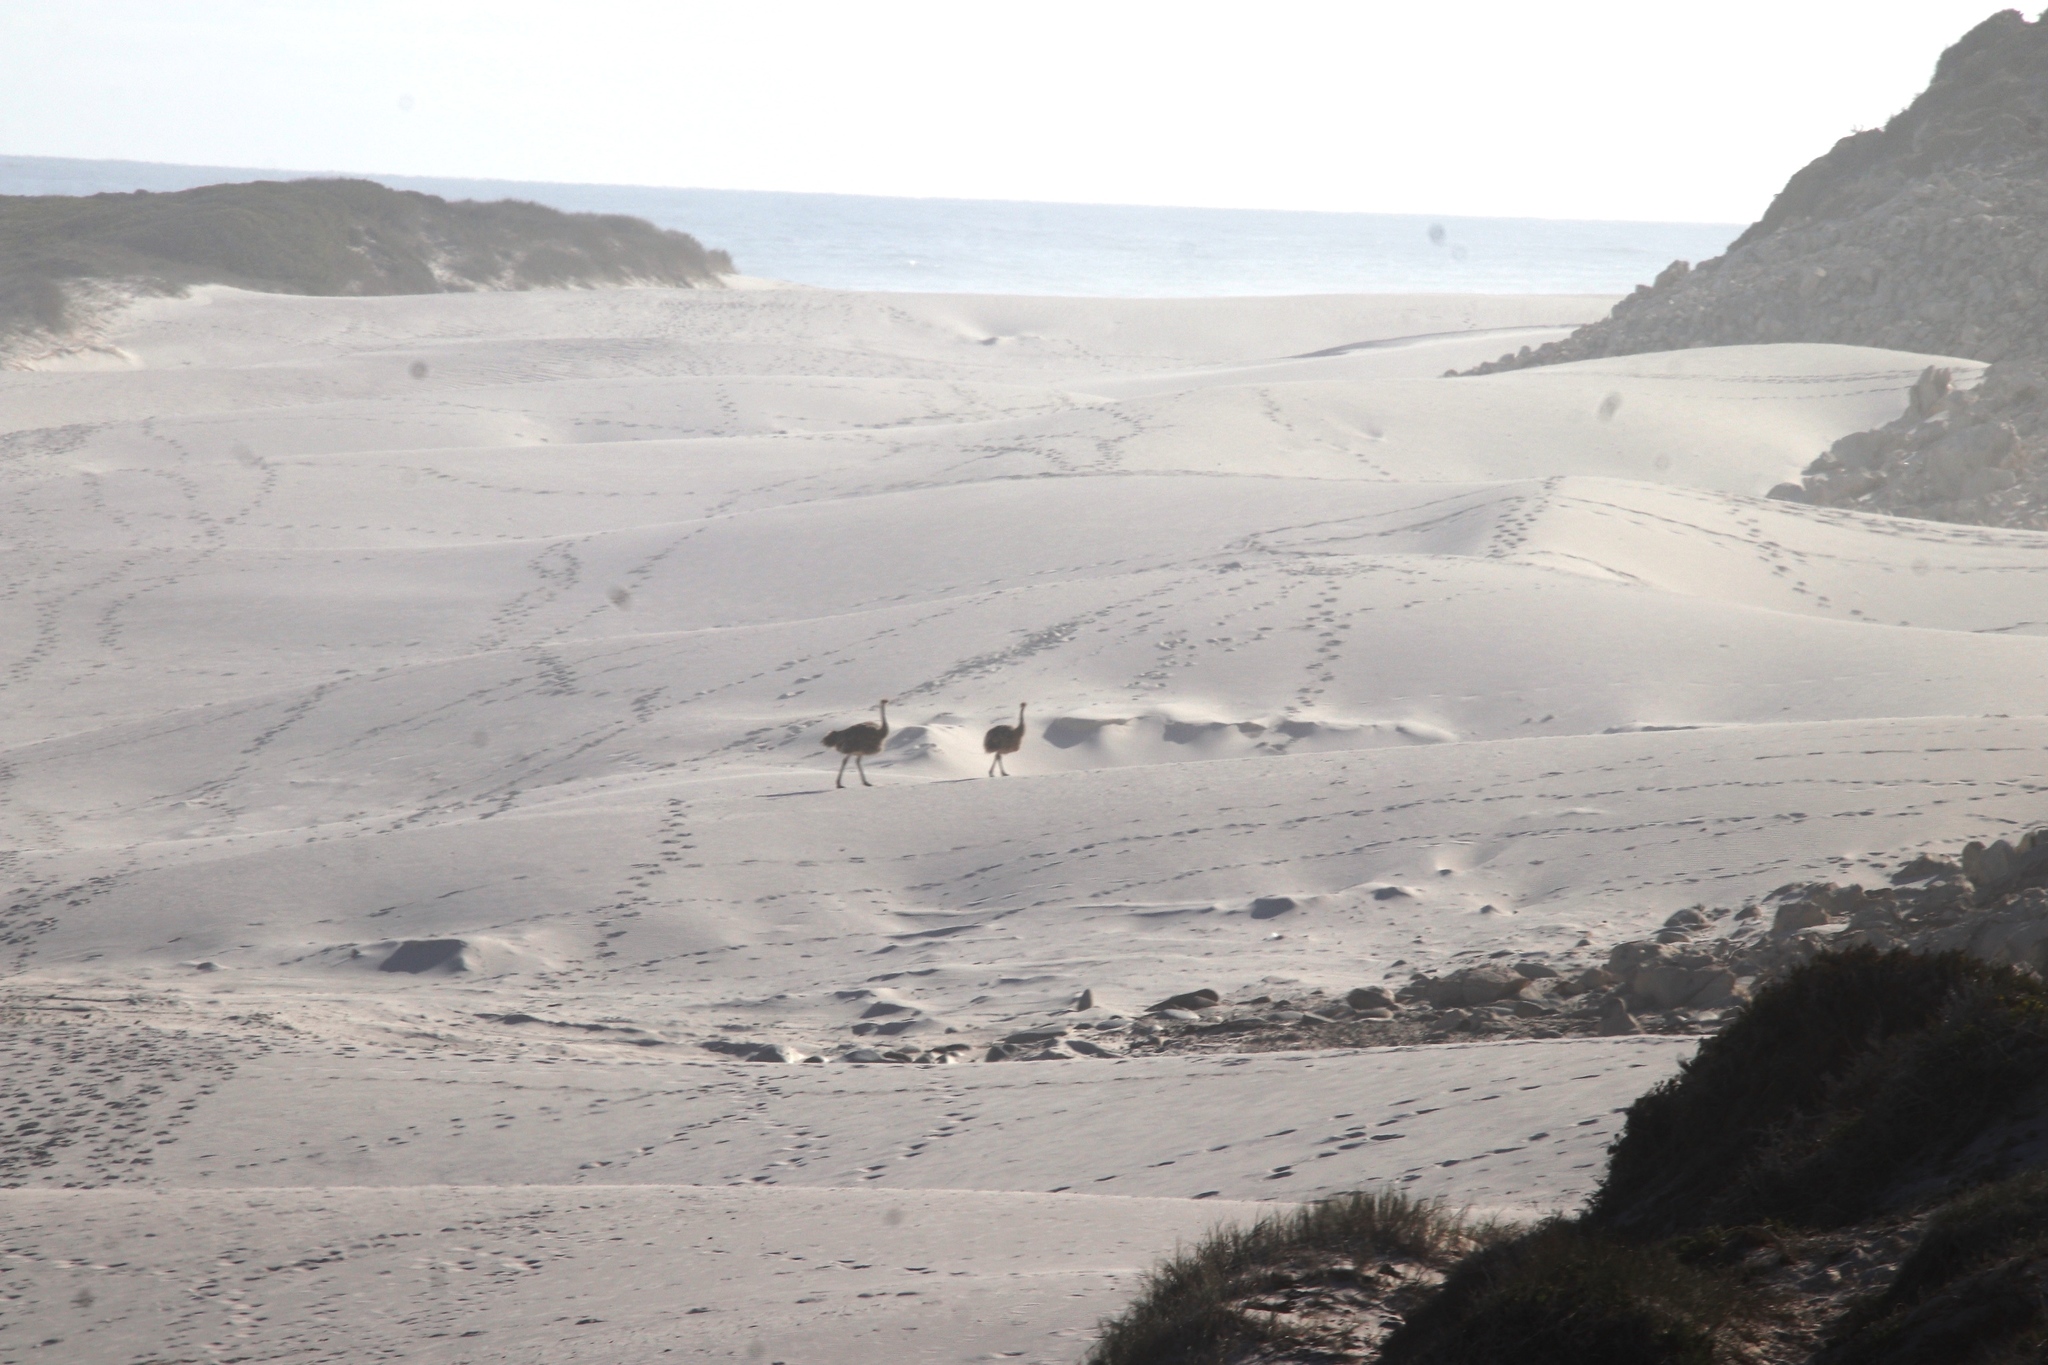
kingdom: Animalia
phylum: Chordata
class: Aves
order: Struthioniformes
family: Struthionidae
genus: Struthio
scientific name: Struthio camelus
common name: Common ostrich
